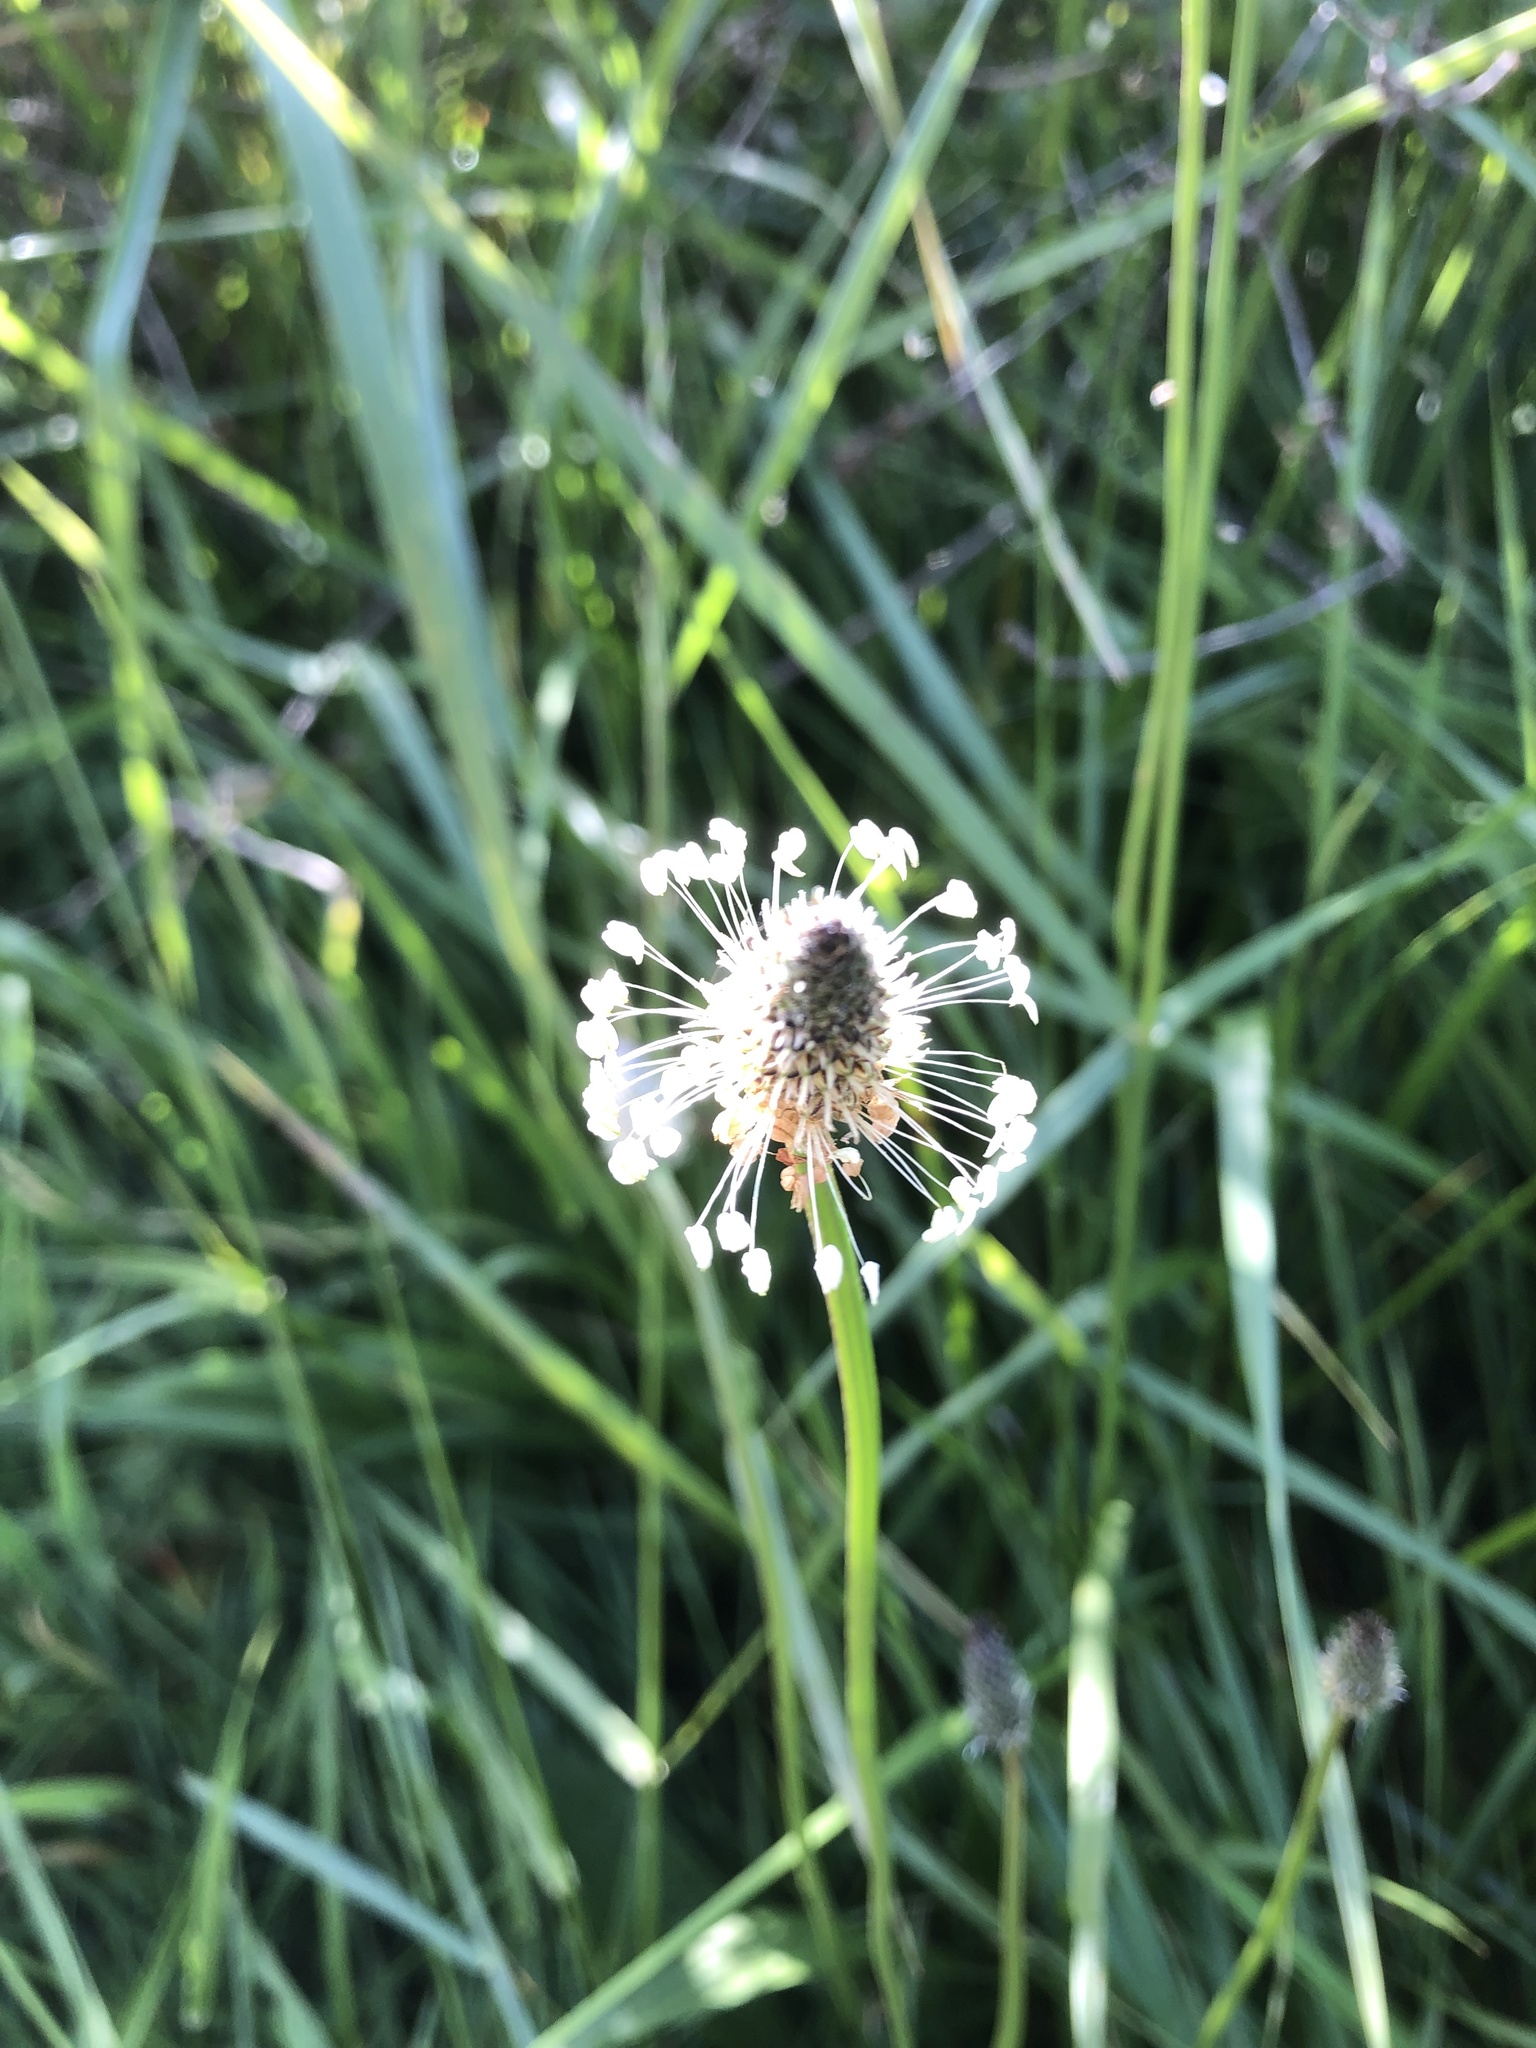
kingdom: Plantae
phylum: Tracheophyta
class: Magnoliopsida
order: Lamiales
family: Plantaginaceae
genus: Plantago
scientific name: Plantago lanceolata
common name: Ribwort plantain
